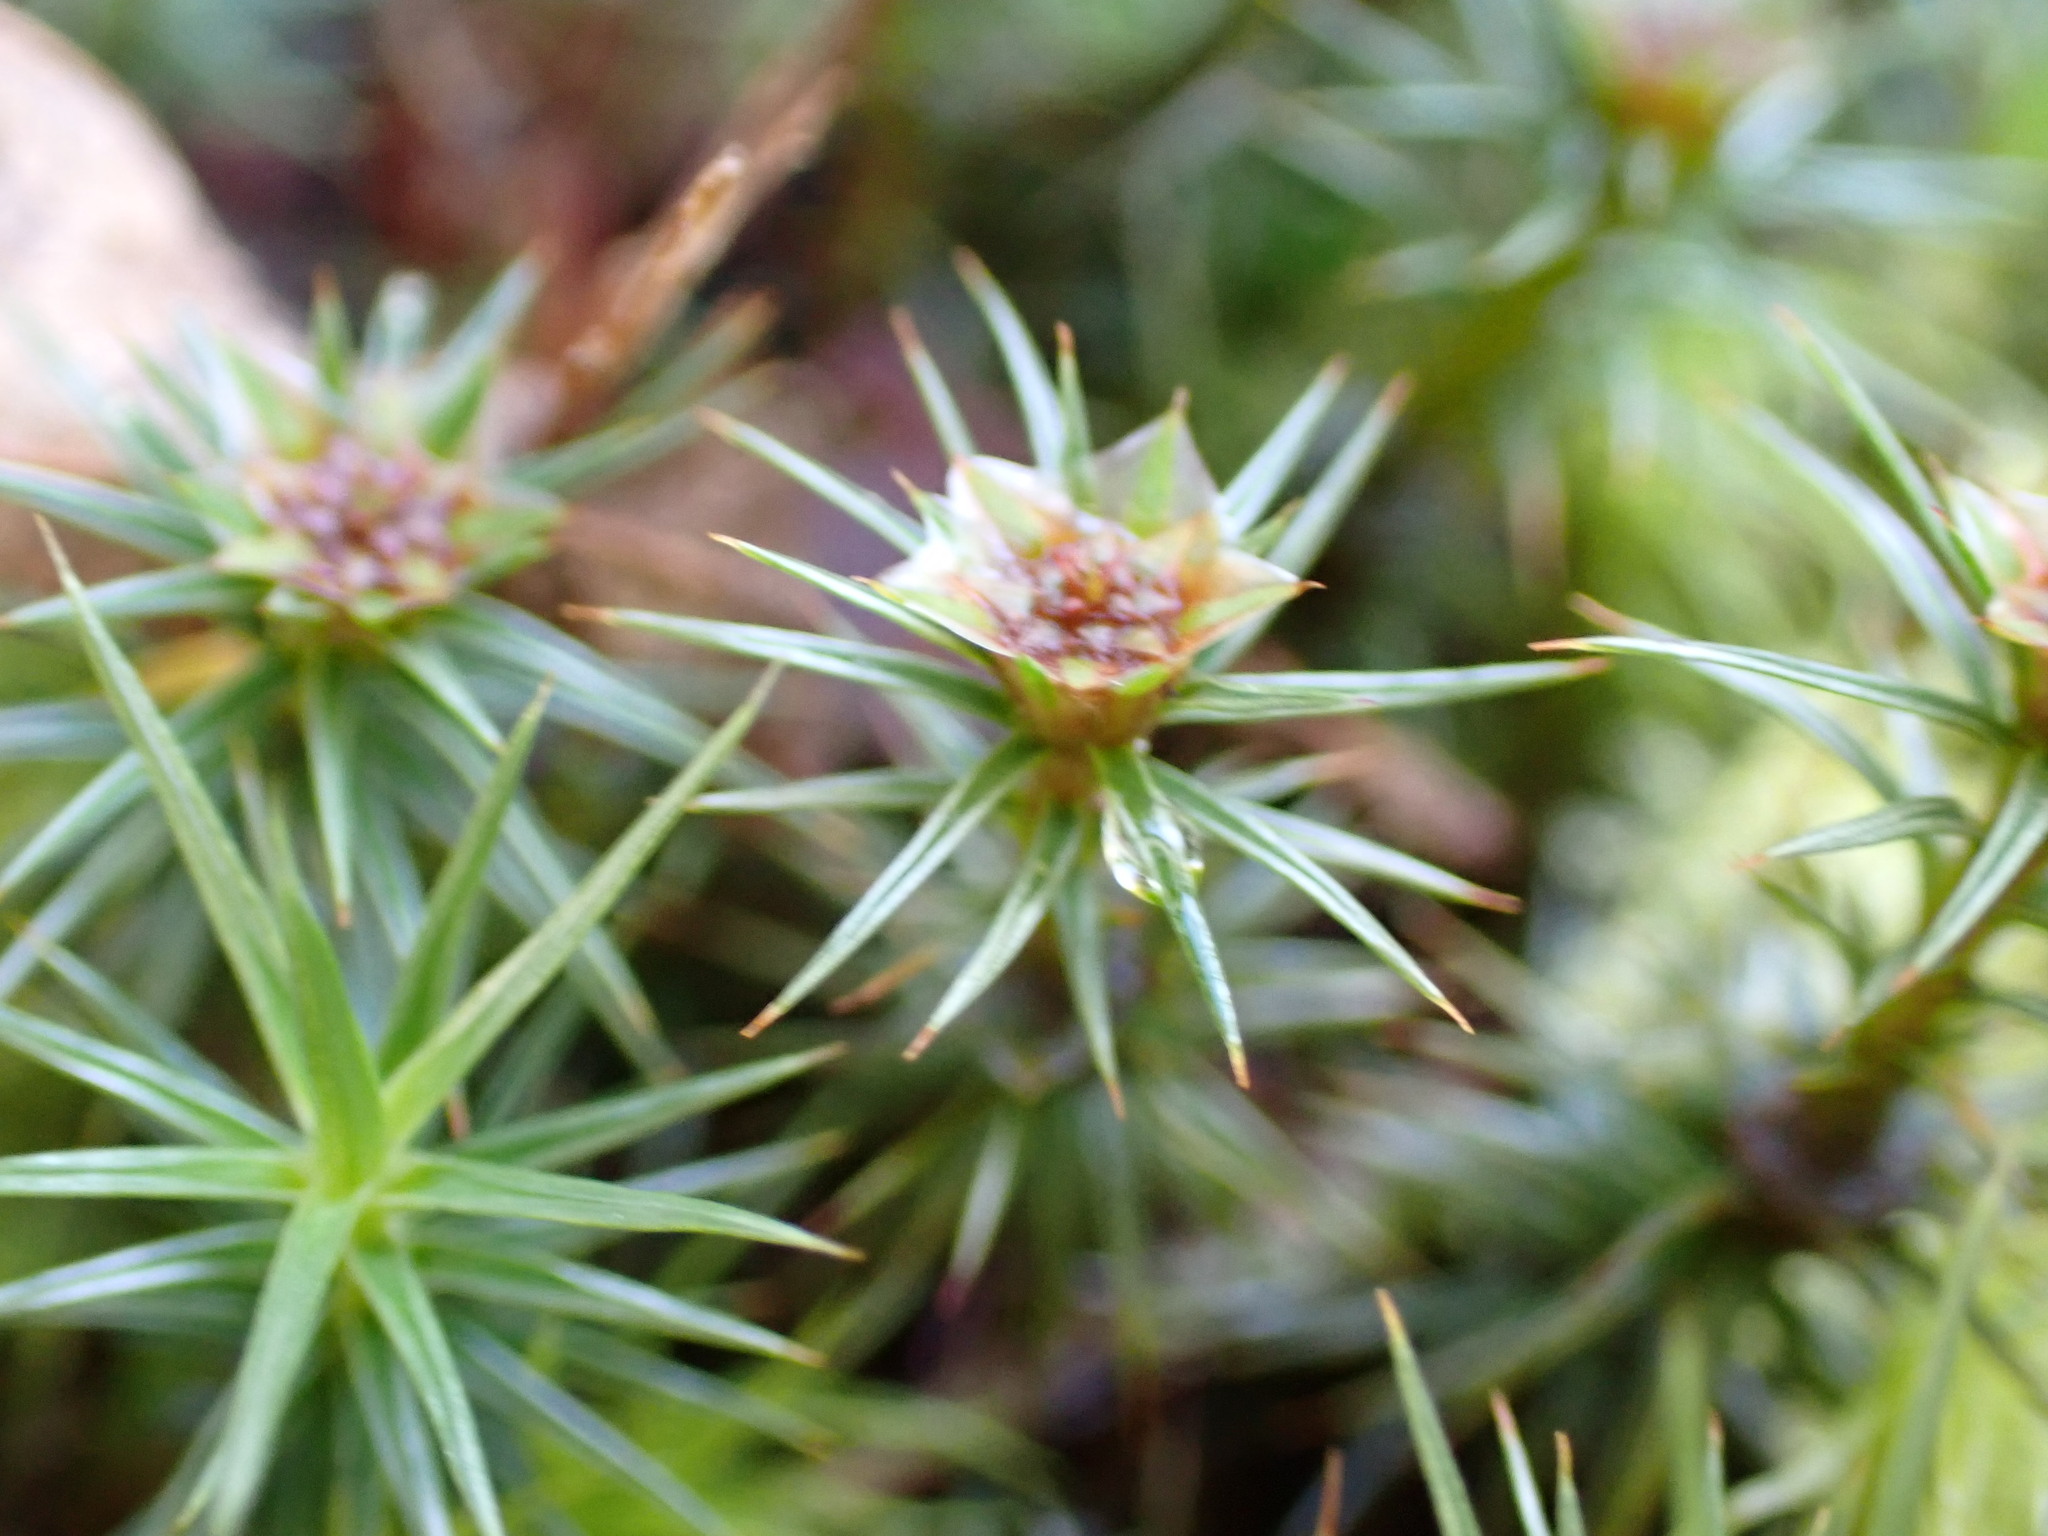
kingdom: Plantae
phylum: Bryophyta
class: Polytrichopsida
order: Polytrichales
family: Polytrichaceae
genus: Polytrichum
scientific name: Polytrichum juniperinum
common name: Juniper haircap moss
